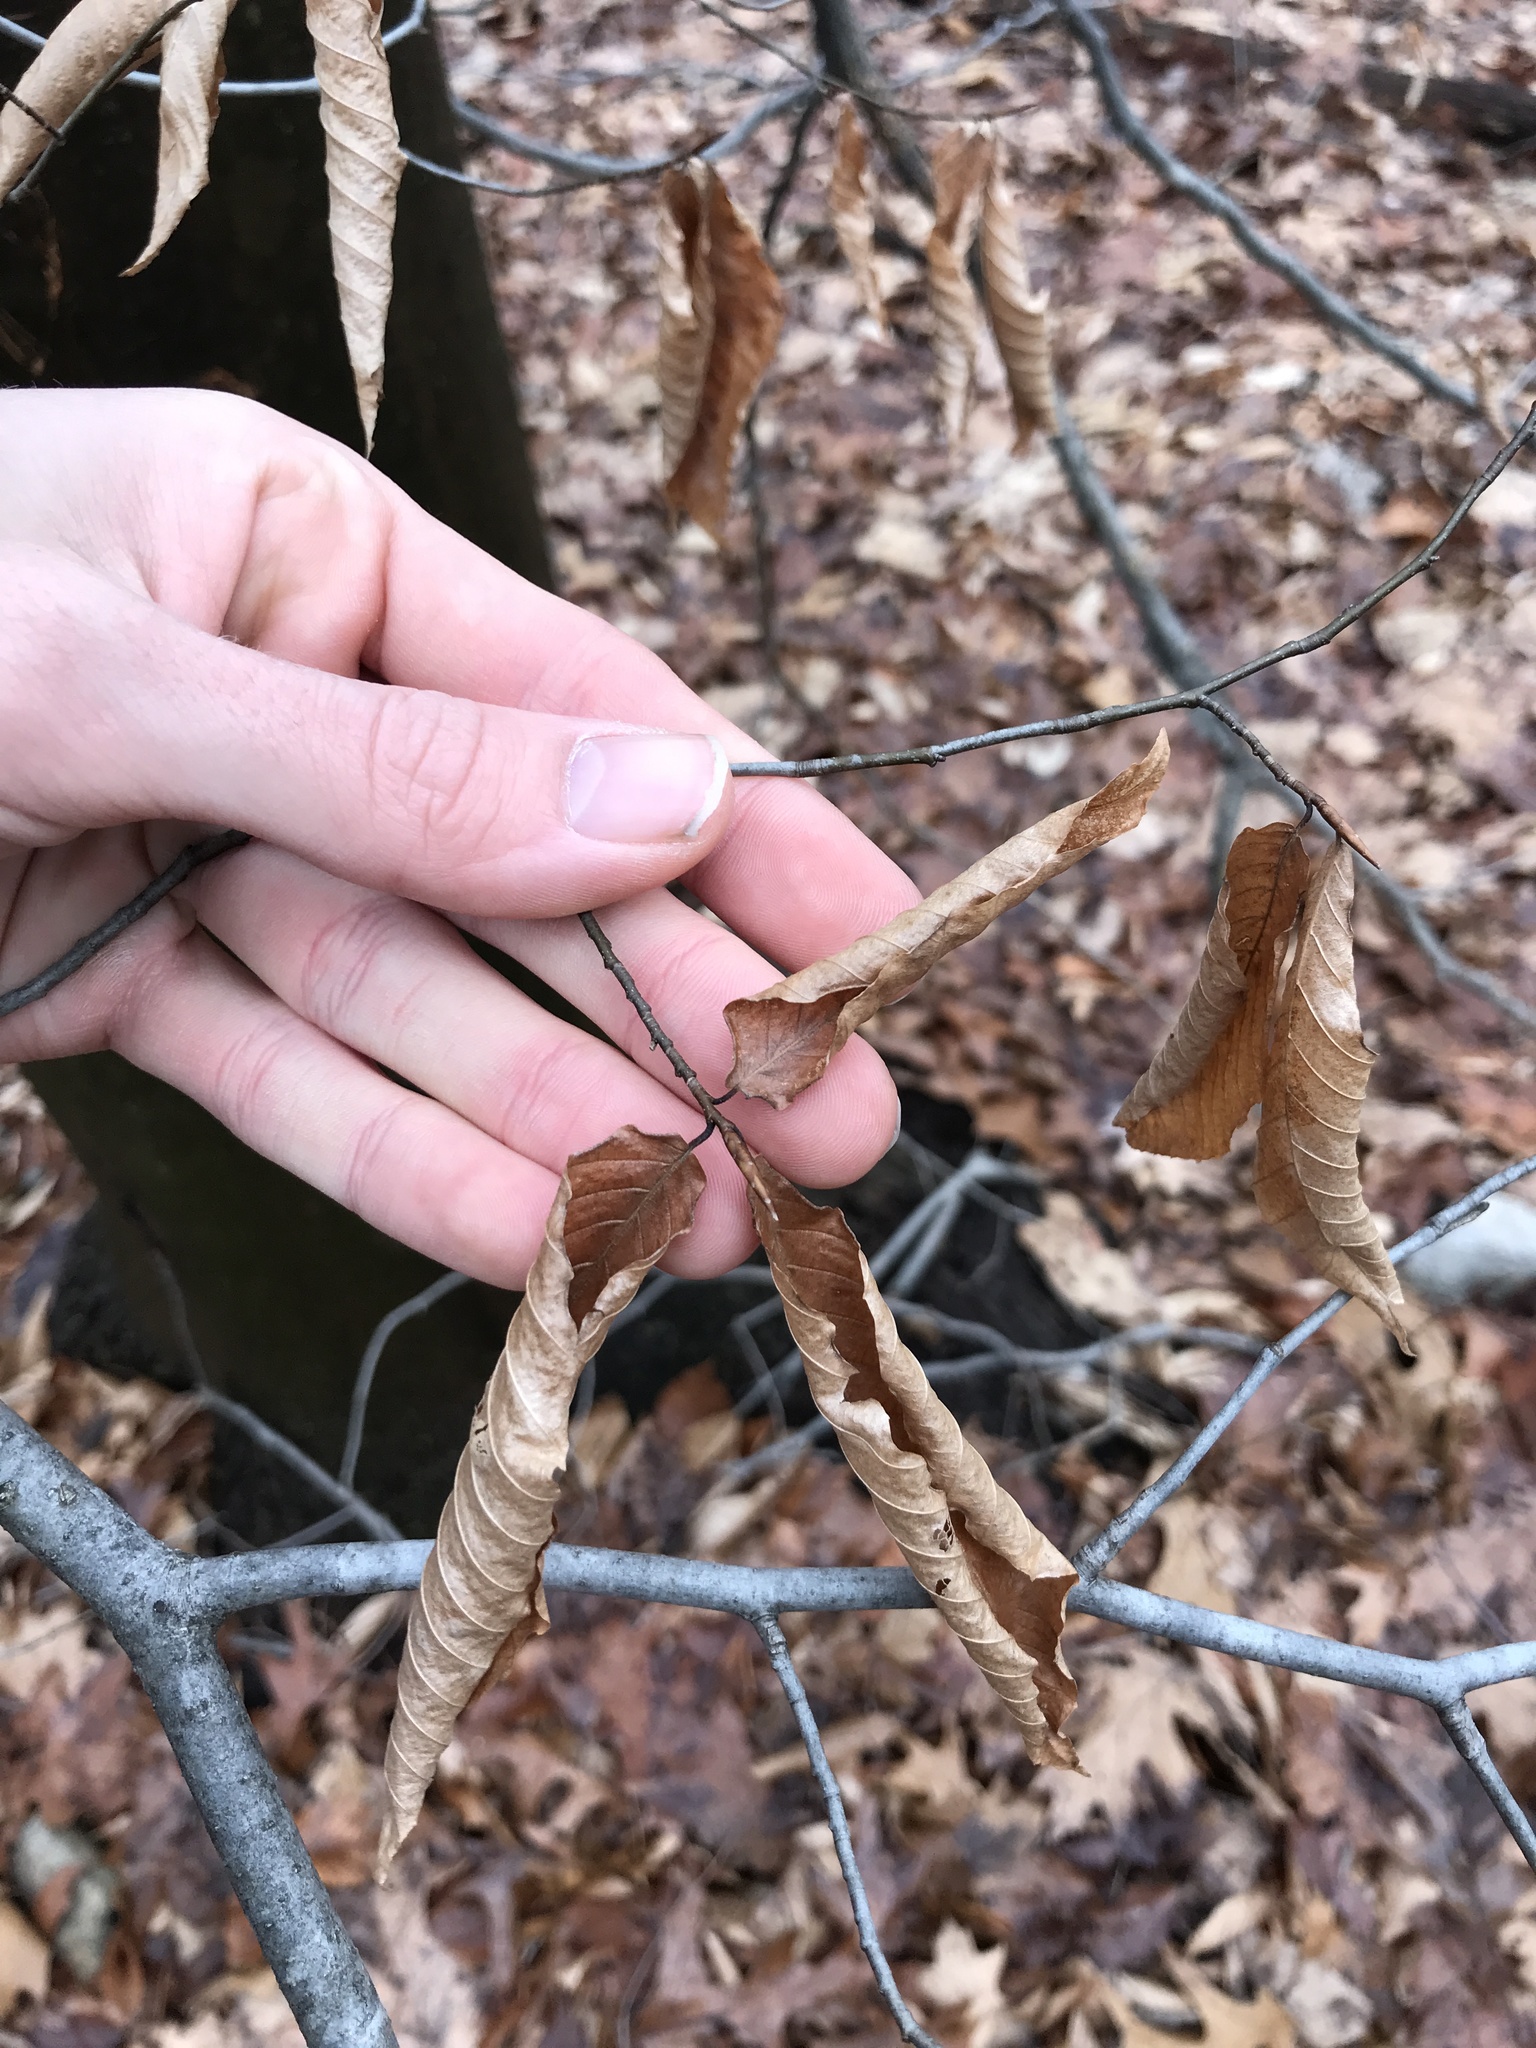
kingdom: Plantae
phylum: Tracheophyta
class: Magnoliopsida
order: Fagales
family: Fagaceae
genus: Fagus
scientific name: Fagus grandifolia
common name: American beech
